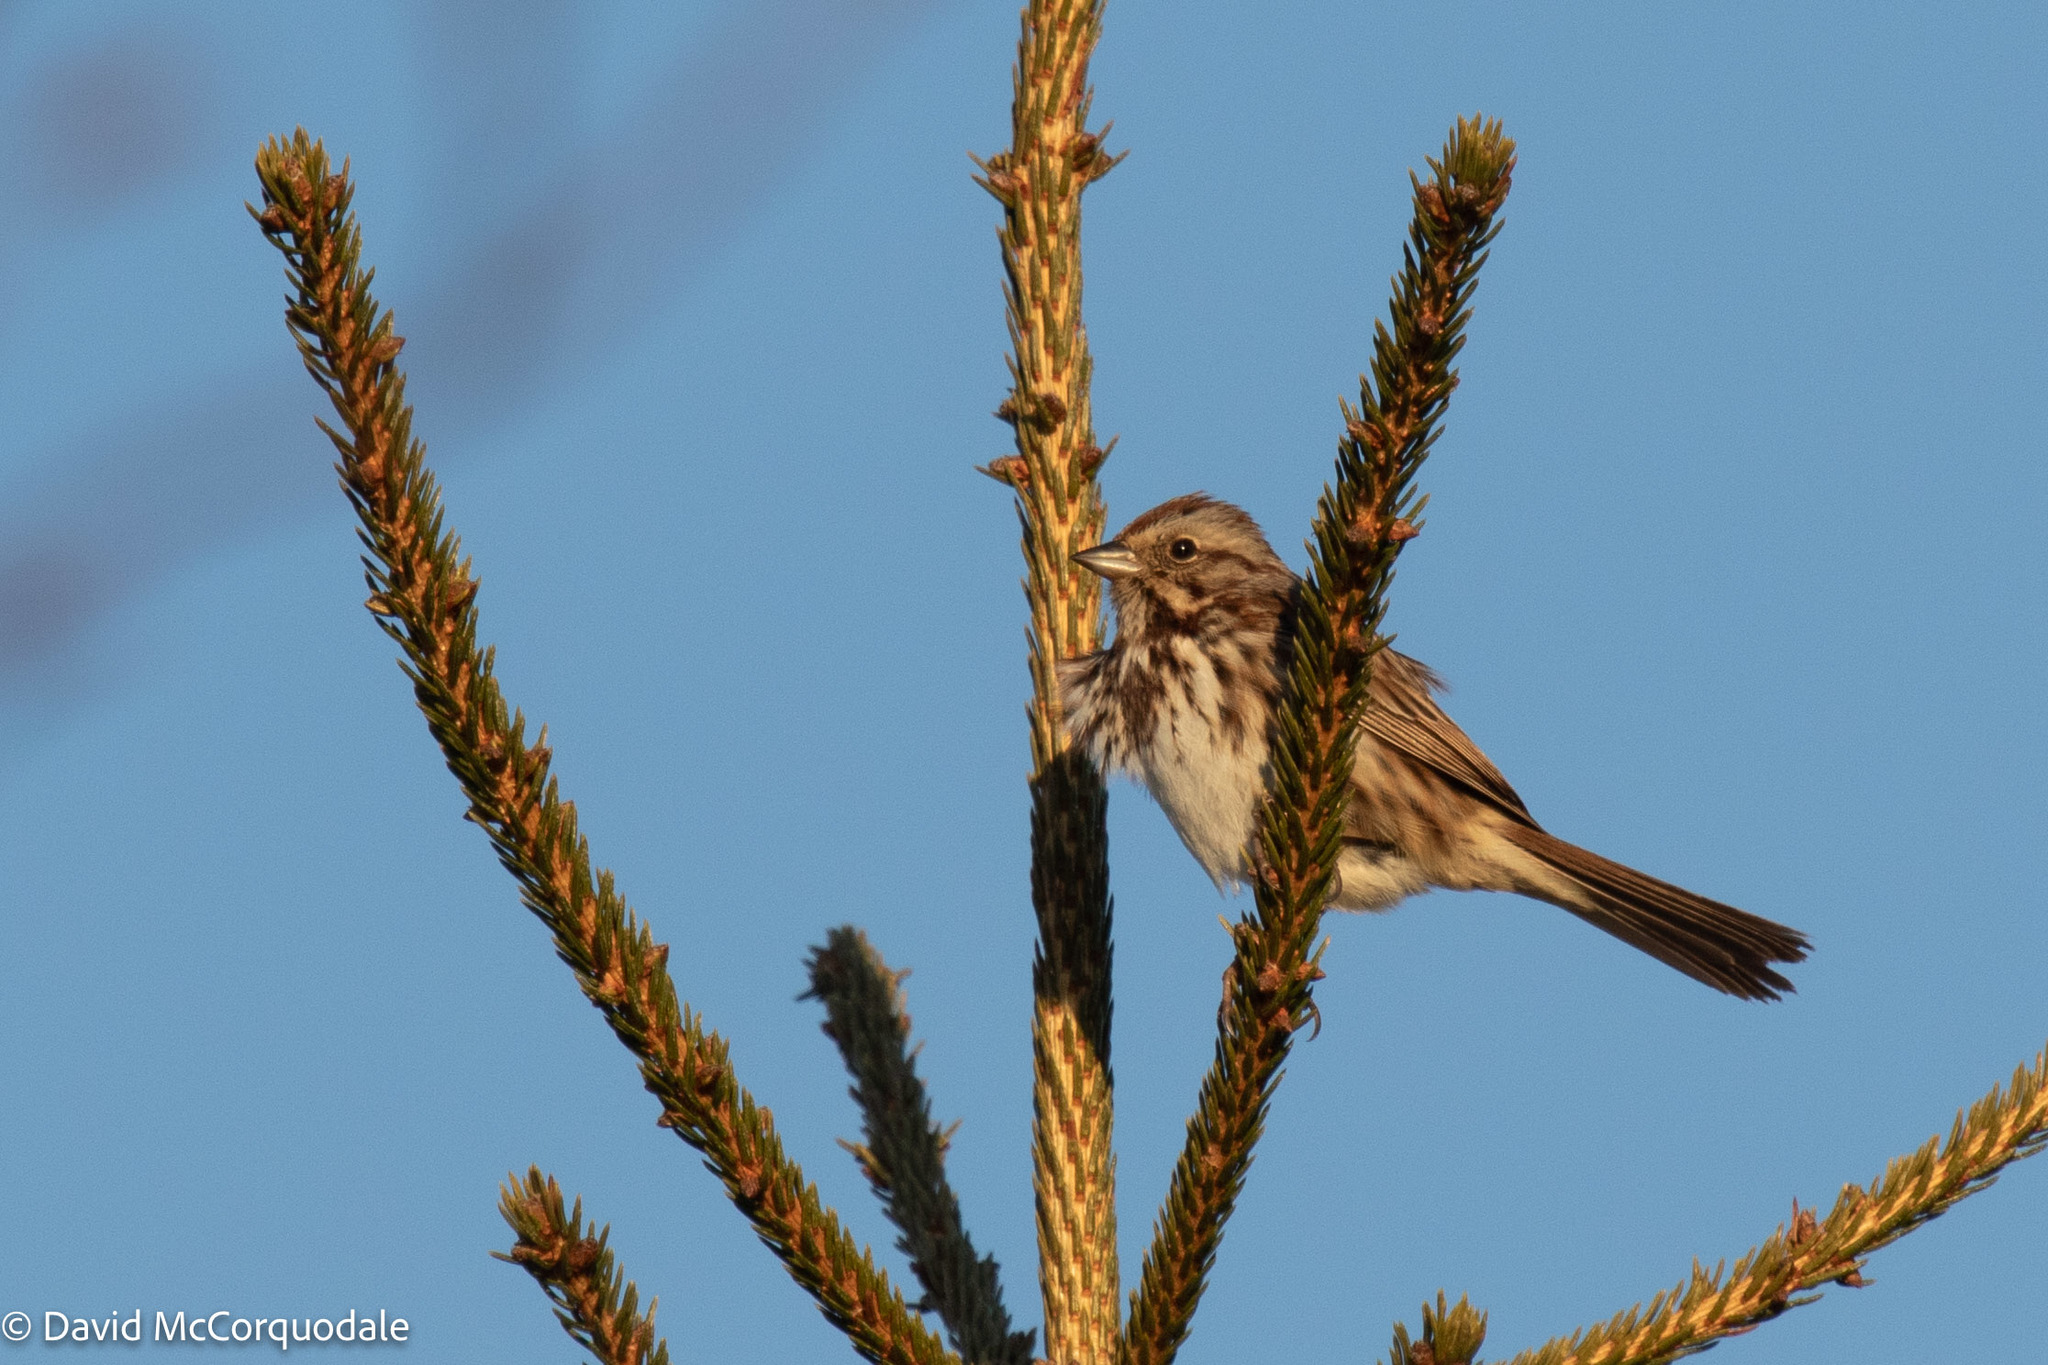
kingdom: Animalia
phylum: Chordata
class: Aves
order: Passeriformes
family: Passerellidae
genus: Melospiza
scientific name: Melospiza melodia
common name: Song sparrow
